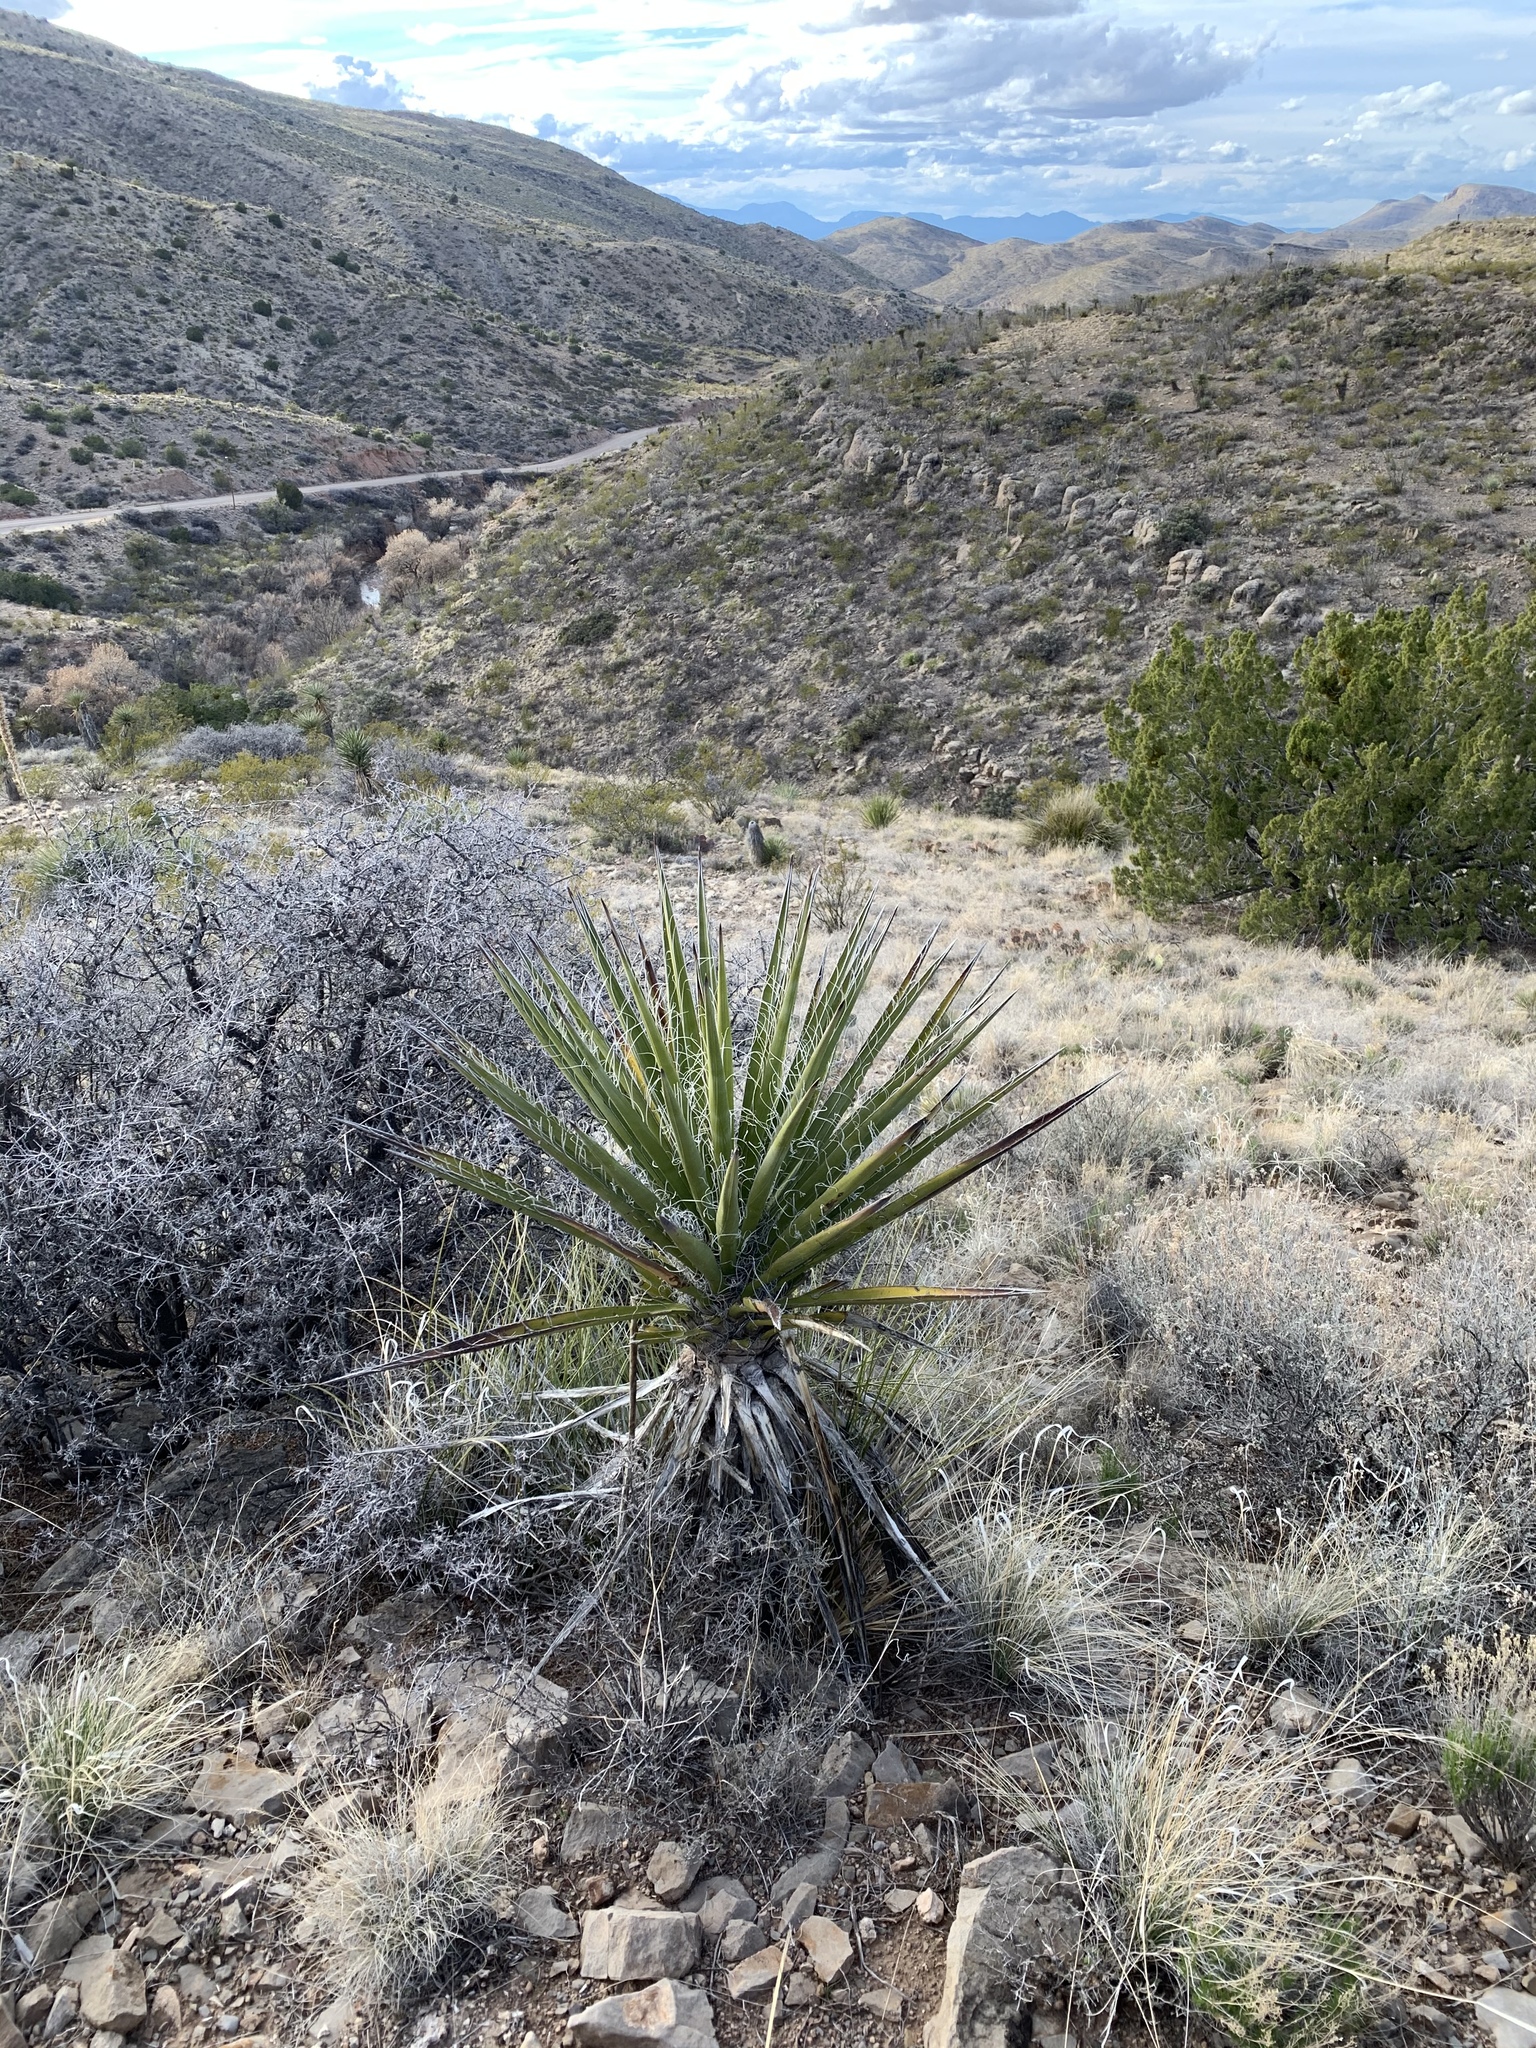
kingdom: Plantae
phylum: Tracheophyta
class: Liliopsida
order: Asparagales
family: Asparagaceae
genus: Yucca
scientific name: Yucca treculiana
